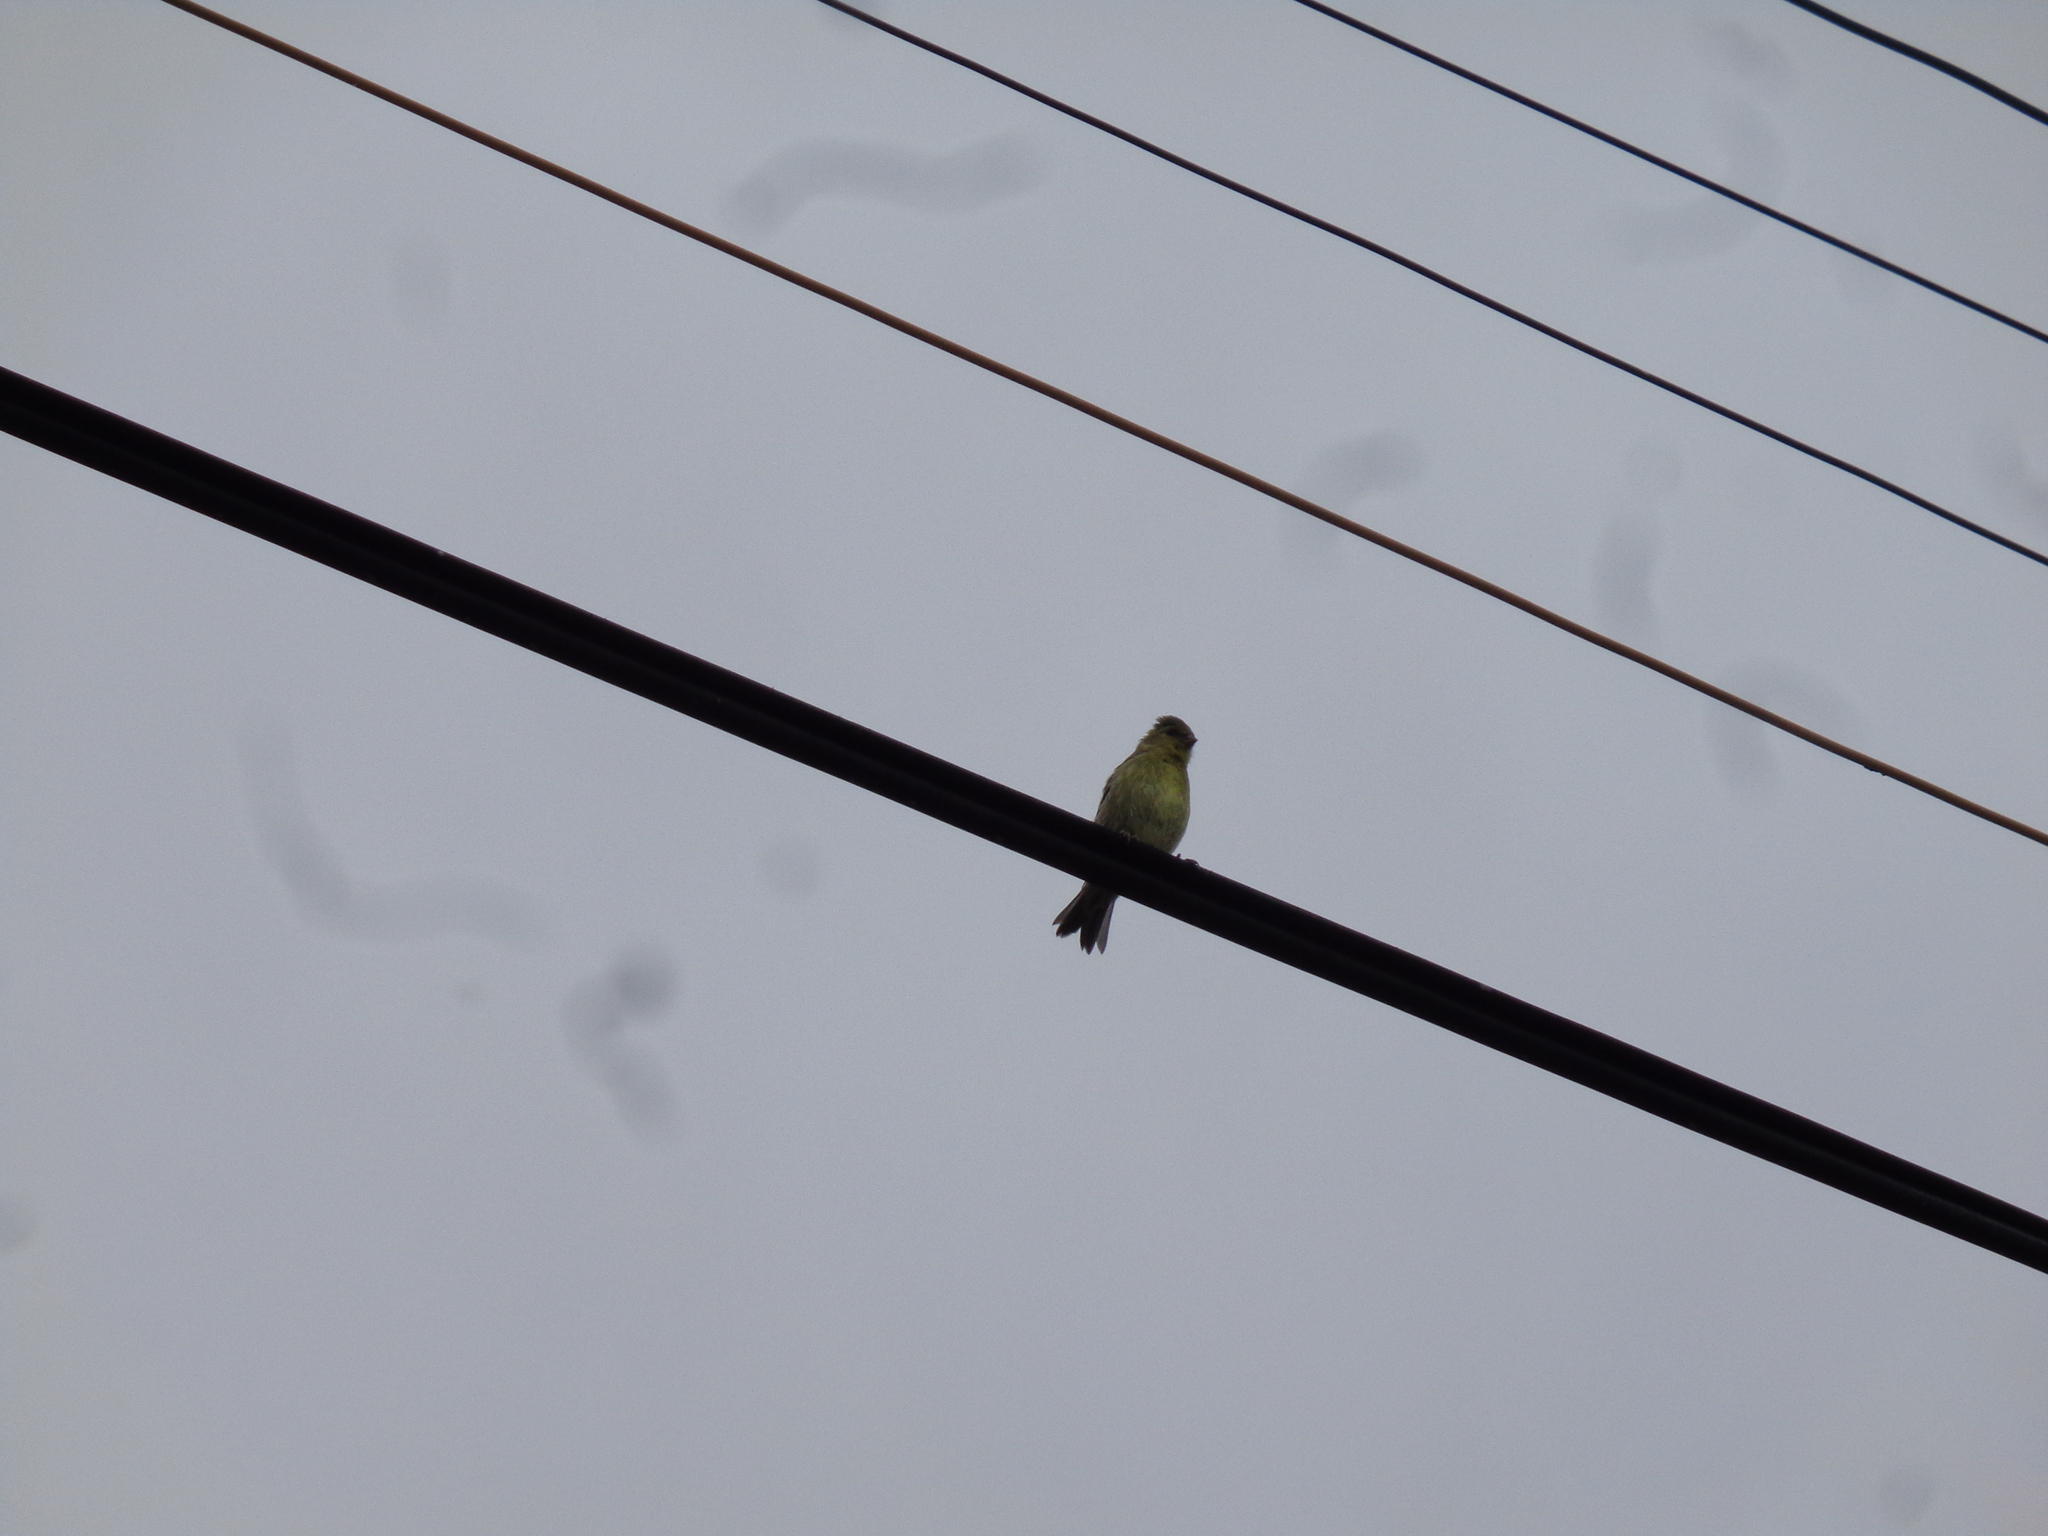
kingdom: Animalia
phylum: Chordata
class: Aves
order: Passeriformes
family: Fringillidae
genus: Spinus
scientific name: Spinus barbatus
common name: Black-chinned siskin
